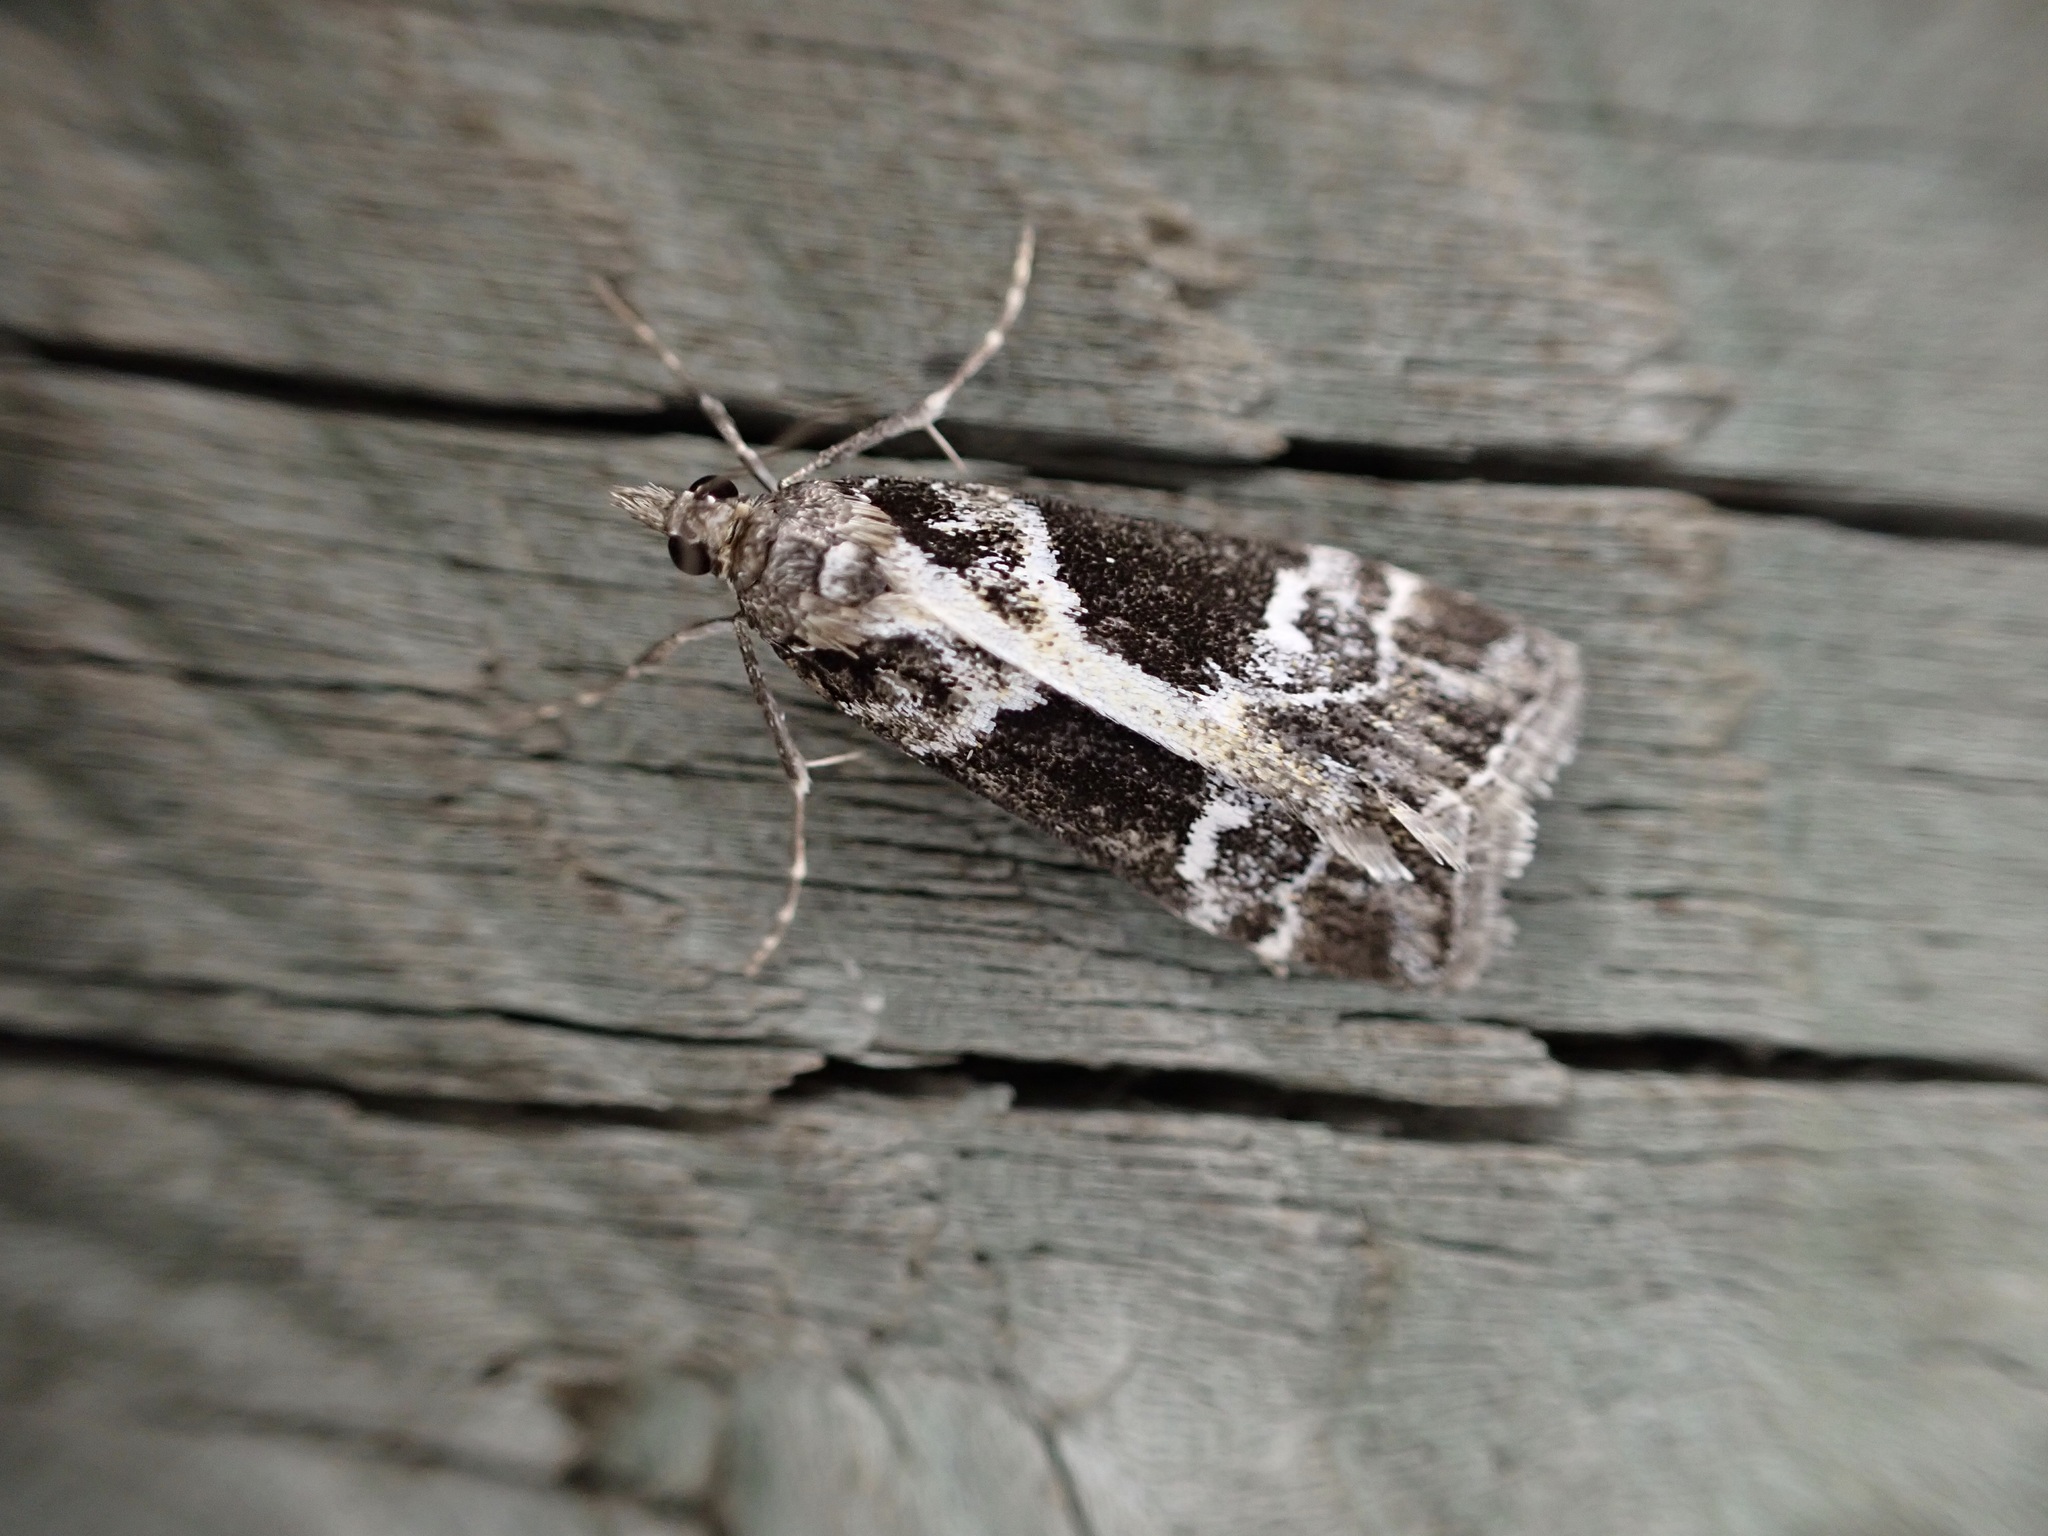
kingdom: Animalia
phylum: Arthropoda
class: Insecta
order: Lepidoptera
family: Crambidae
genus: Eudonia
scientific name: Eudonia melanaegis
